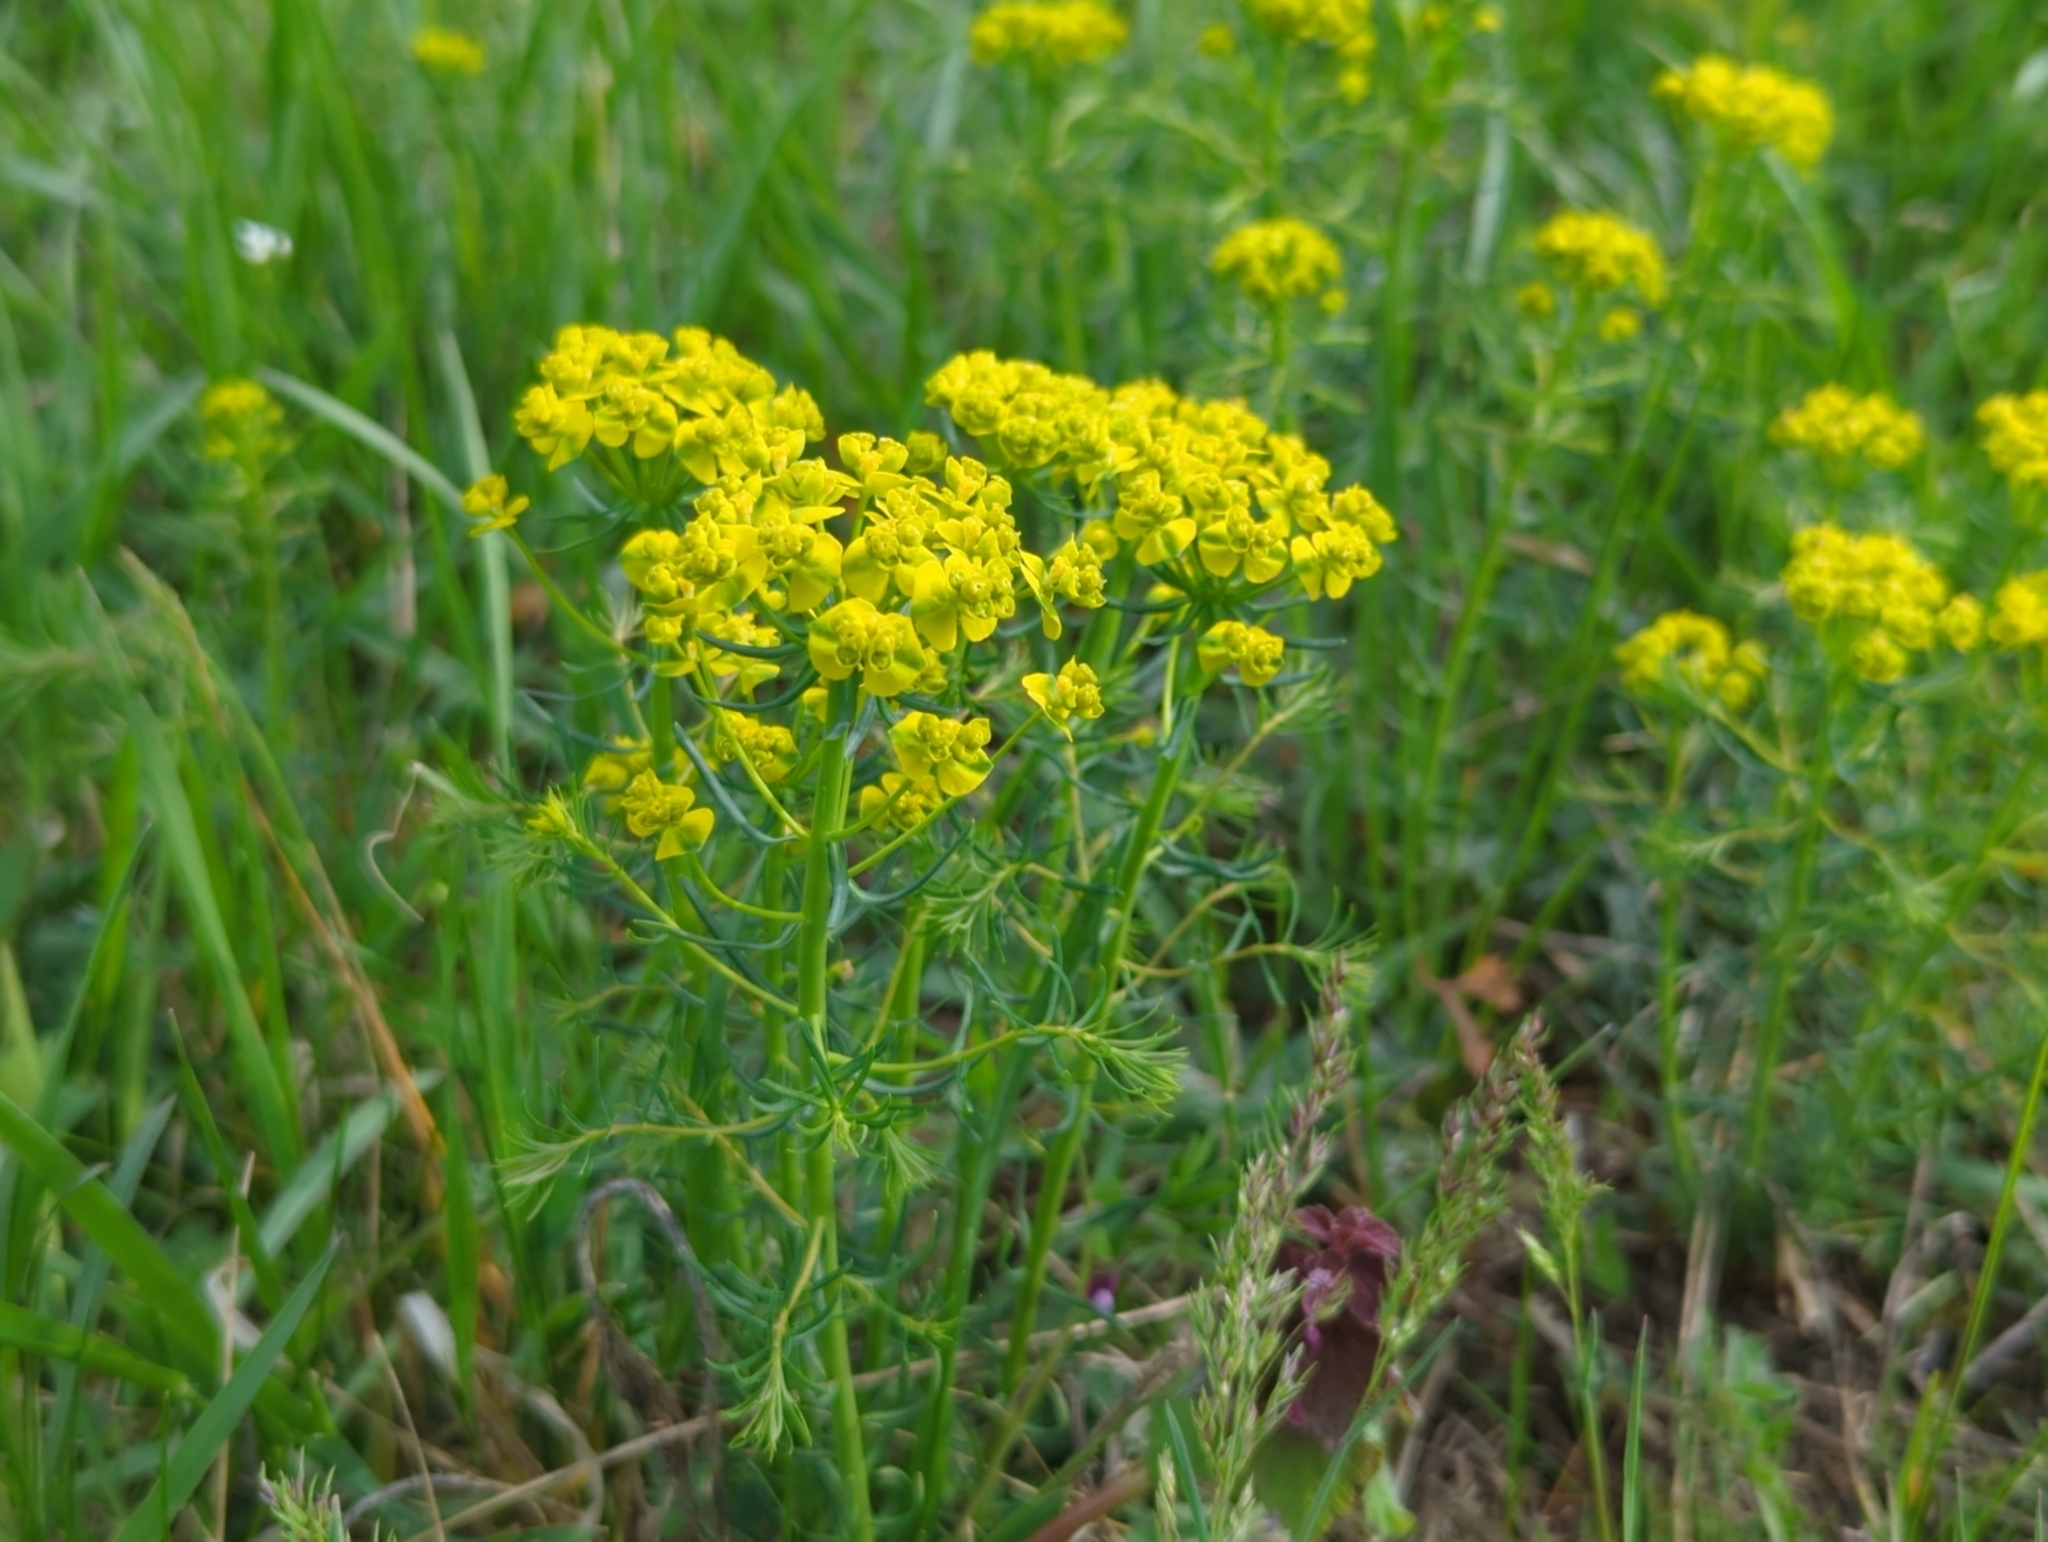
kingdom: Plantae
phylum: Tracheophyta
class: Magnoliopsida
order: Malpighiales
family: Euphorbiaceae
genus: Euphorbia
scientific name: Euphorbia cyparissias
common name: Cypress spurge
